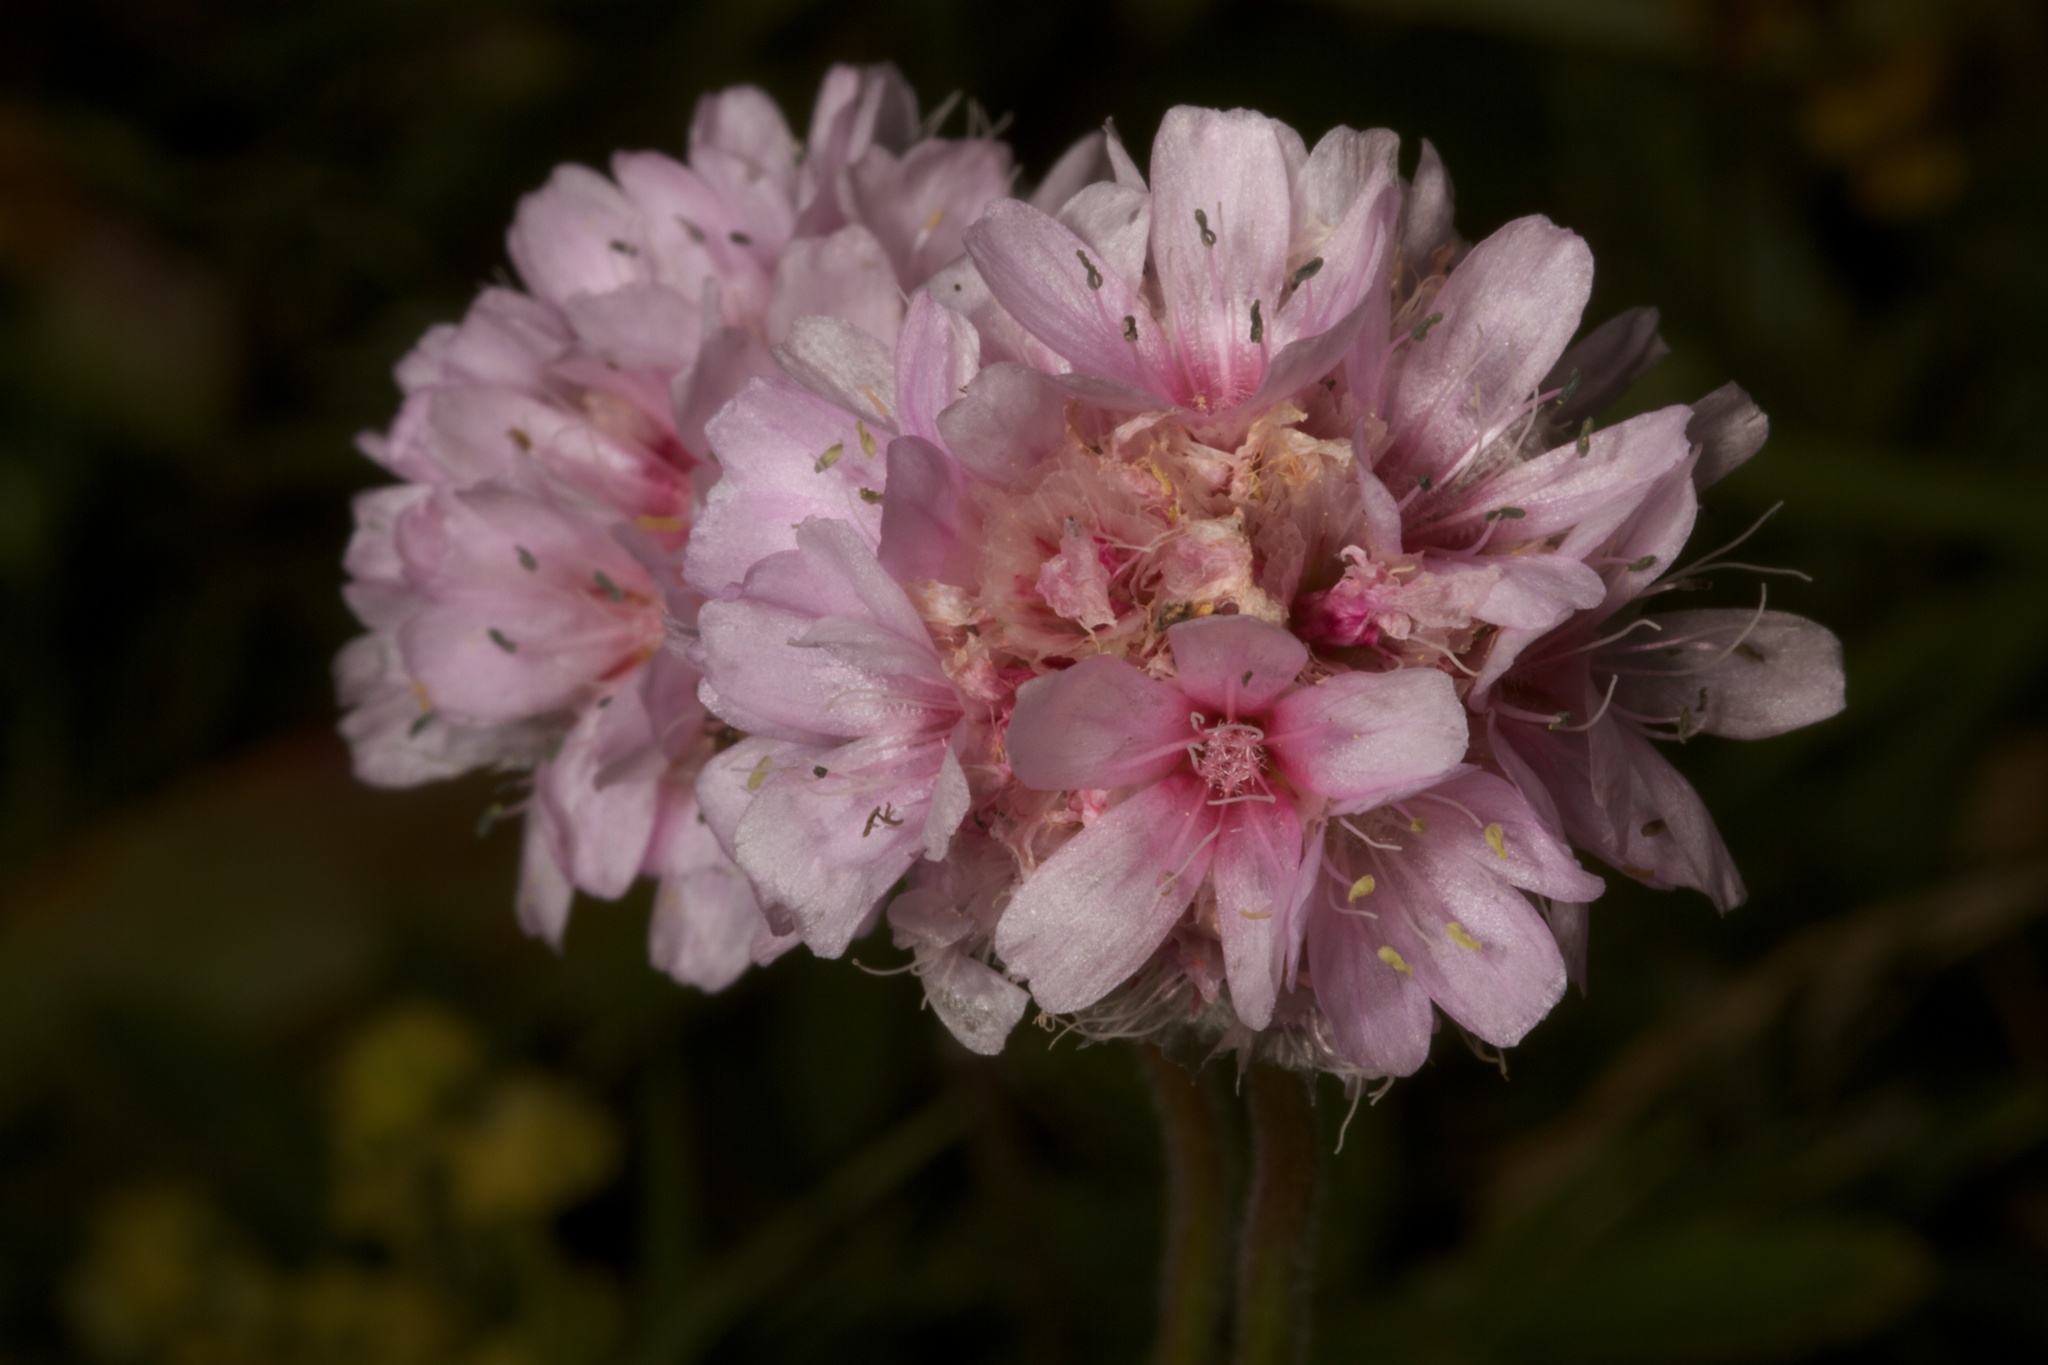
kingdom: Plantae
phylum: Tracheophyta
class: Magnoliopsida
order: Caryophyllales
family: Plumbaginaceae
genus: Armeria
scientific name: Armeria maritima
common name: Thrift
